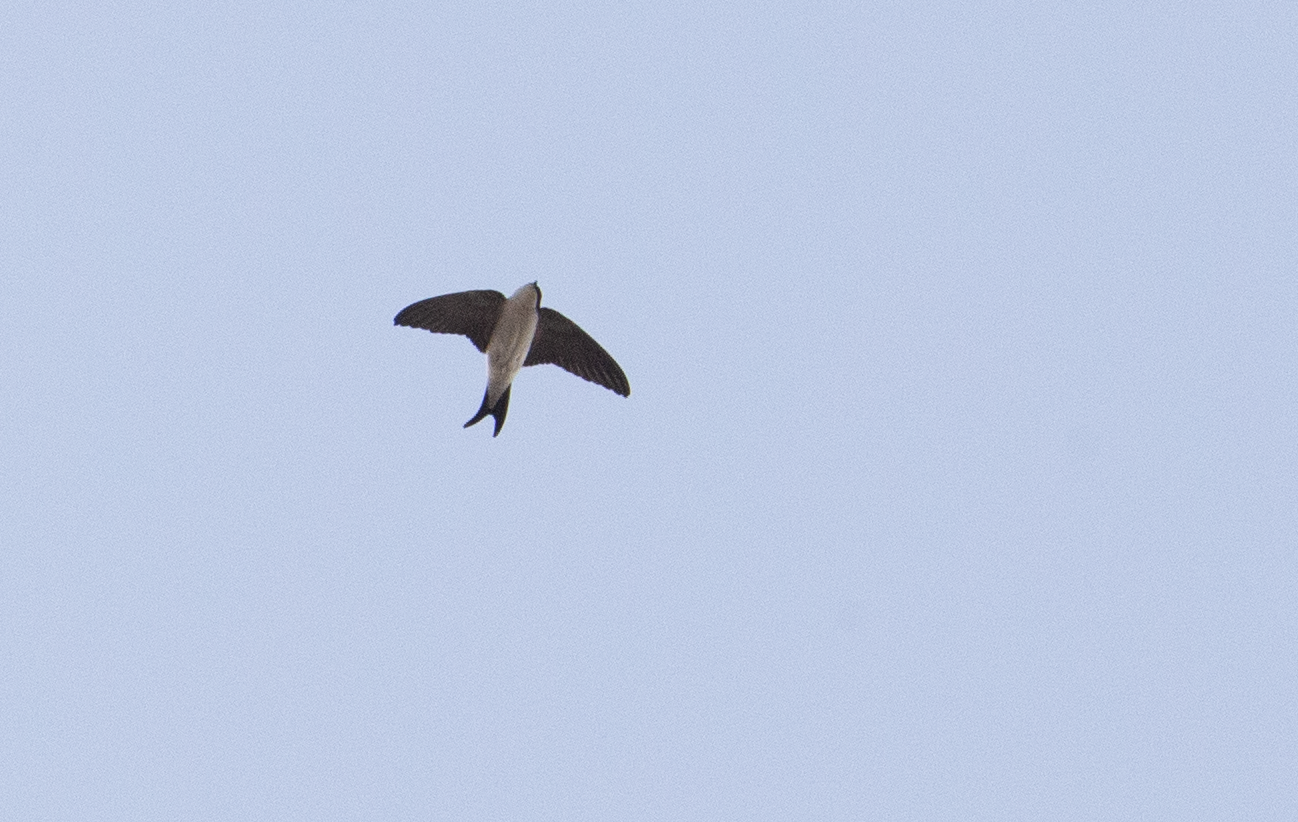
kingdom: Animalia
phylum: Chordata
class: Aves
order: Passeriformes
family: Hirundinidae
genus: Delichon
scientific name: Delichon urbicum
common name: Common house martin
